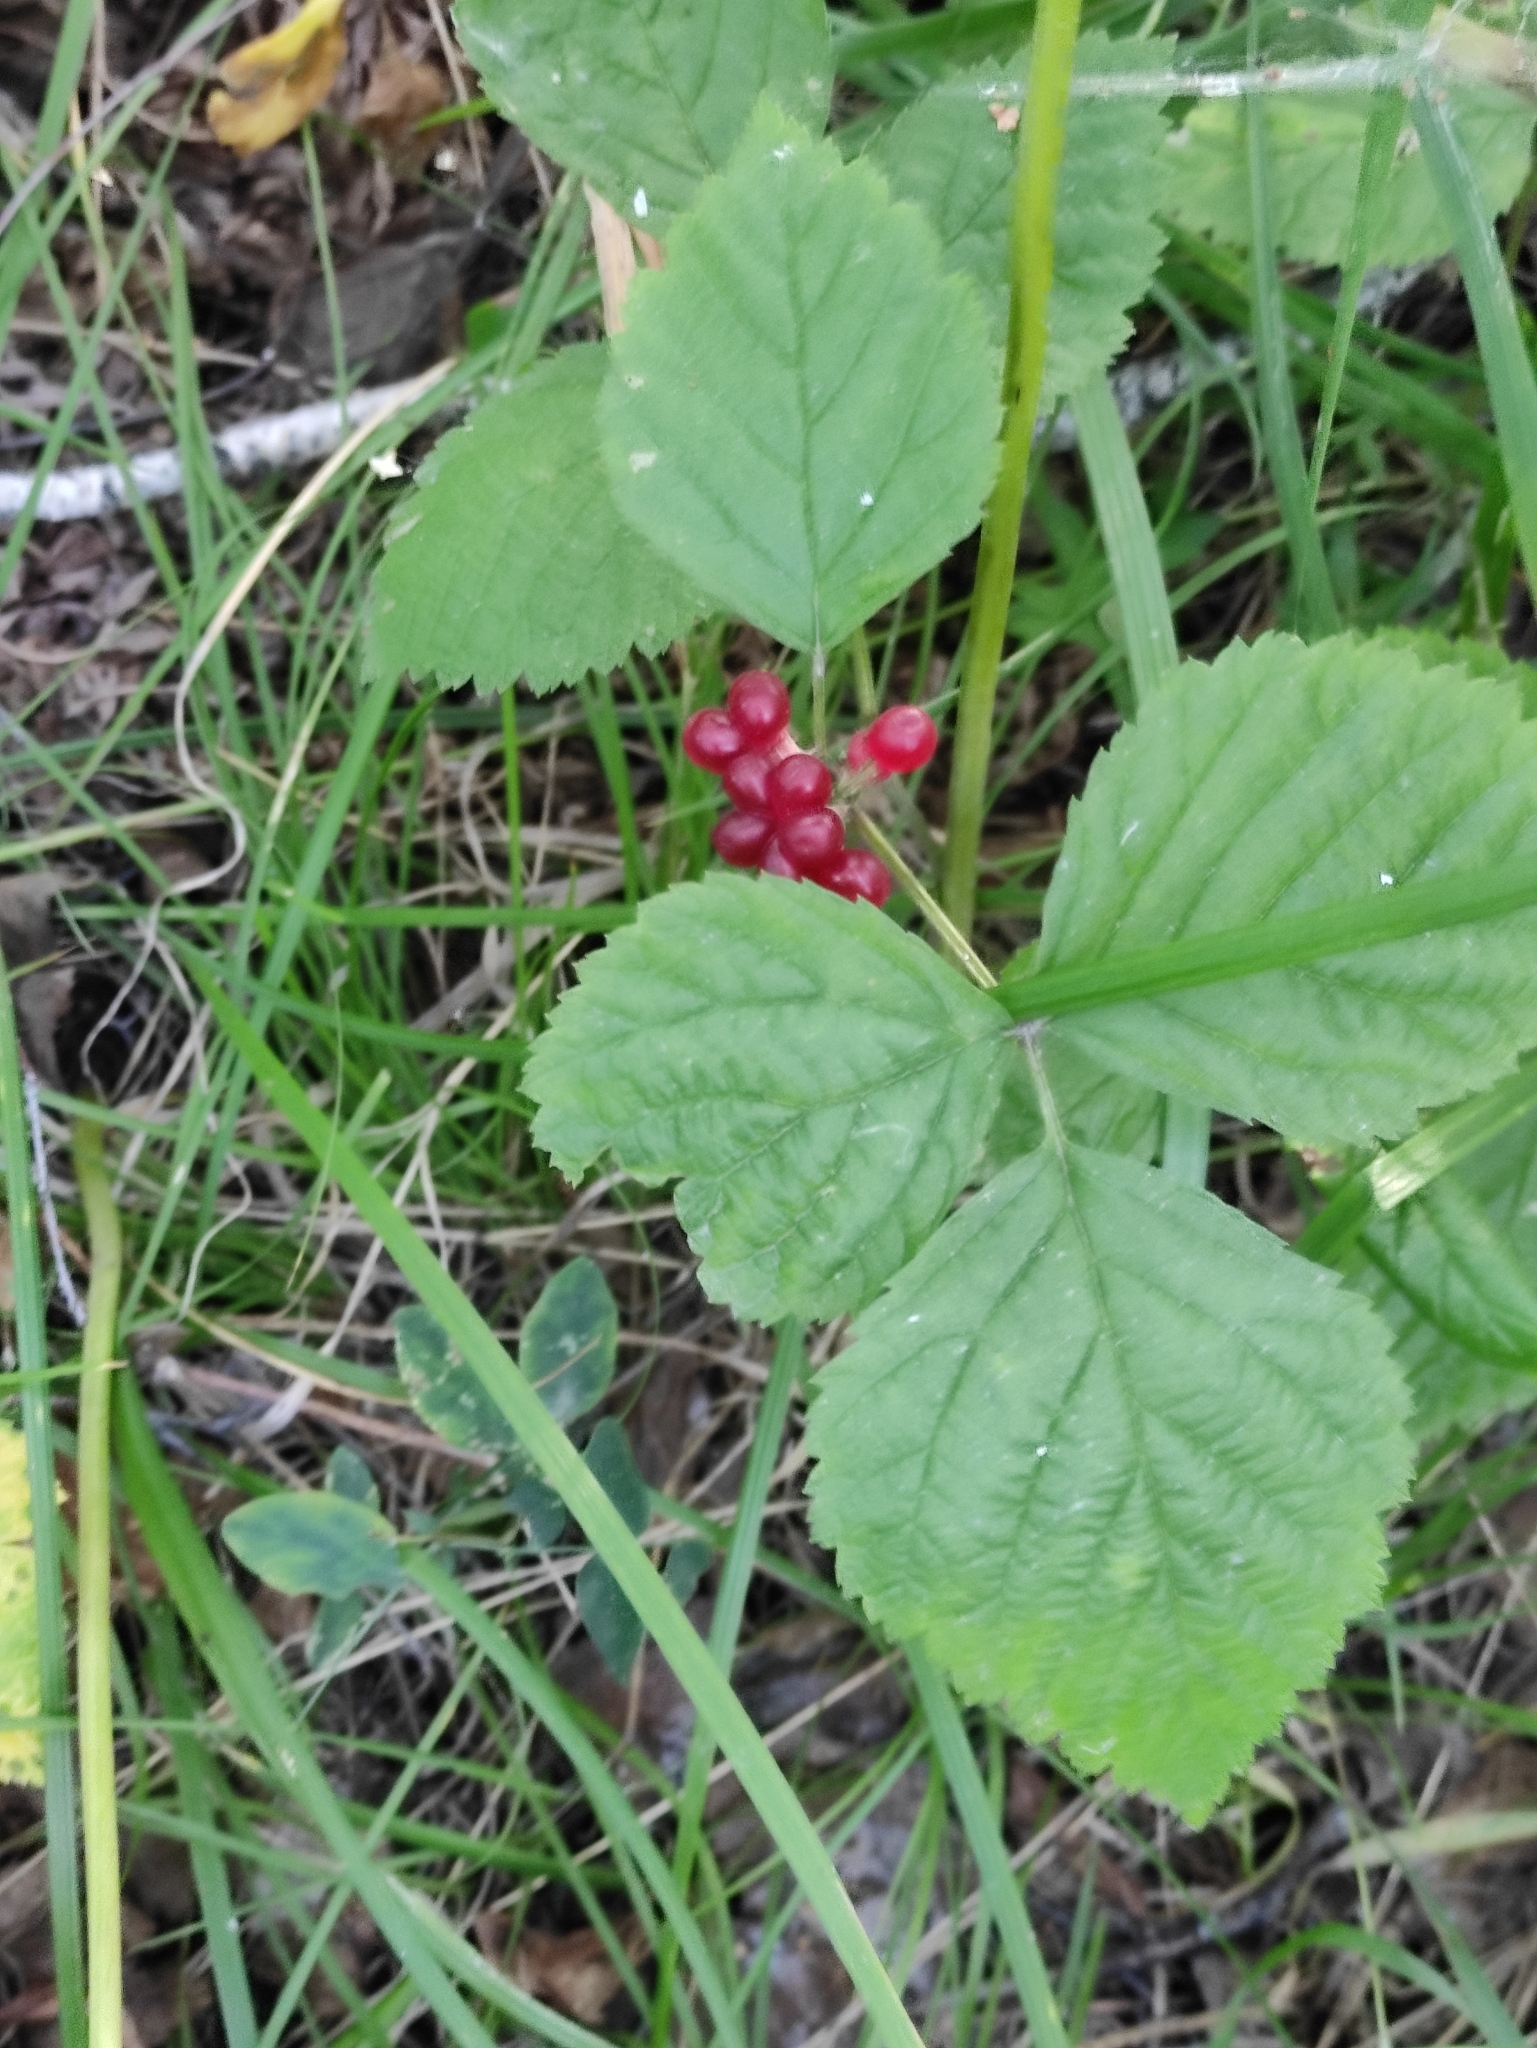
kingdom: Plantae
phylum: Tracheophyta
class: Magnoliopsida
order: Rosales
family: Rosaceae
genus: Rubus
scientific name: Rubus saxatilis
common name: Stone bramble
